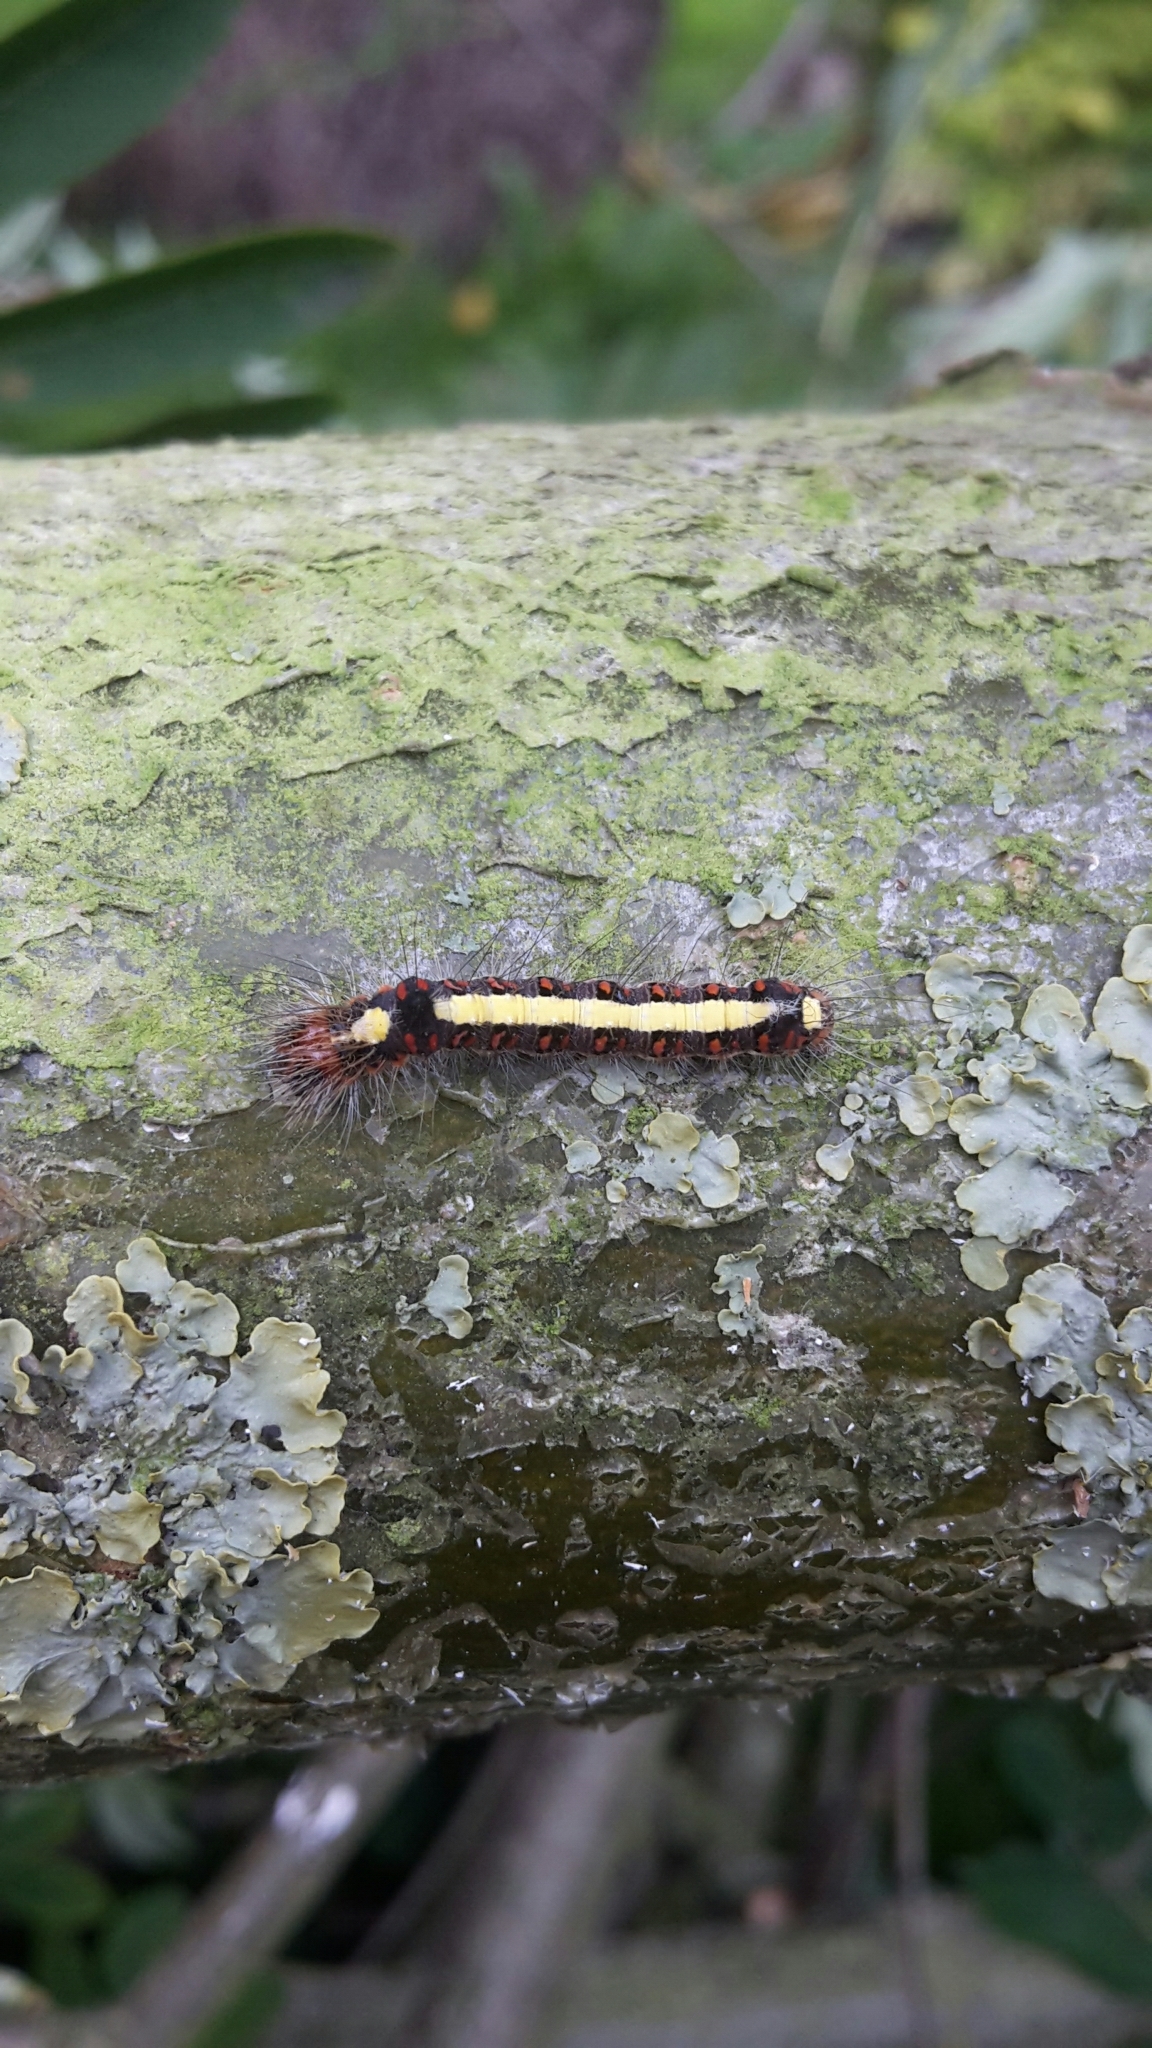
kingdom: Animalia
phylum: Arthropoda
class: Insecta
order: Lepidoptera
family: Noctuidae
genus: Acronicta
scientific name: Acronicta psi
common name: Grey dagger
